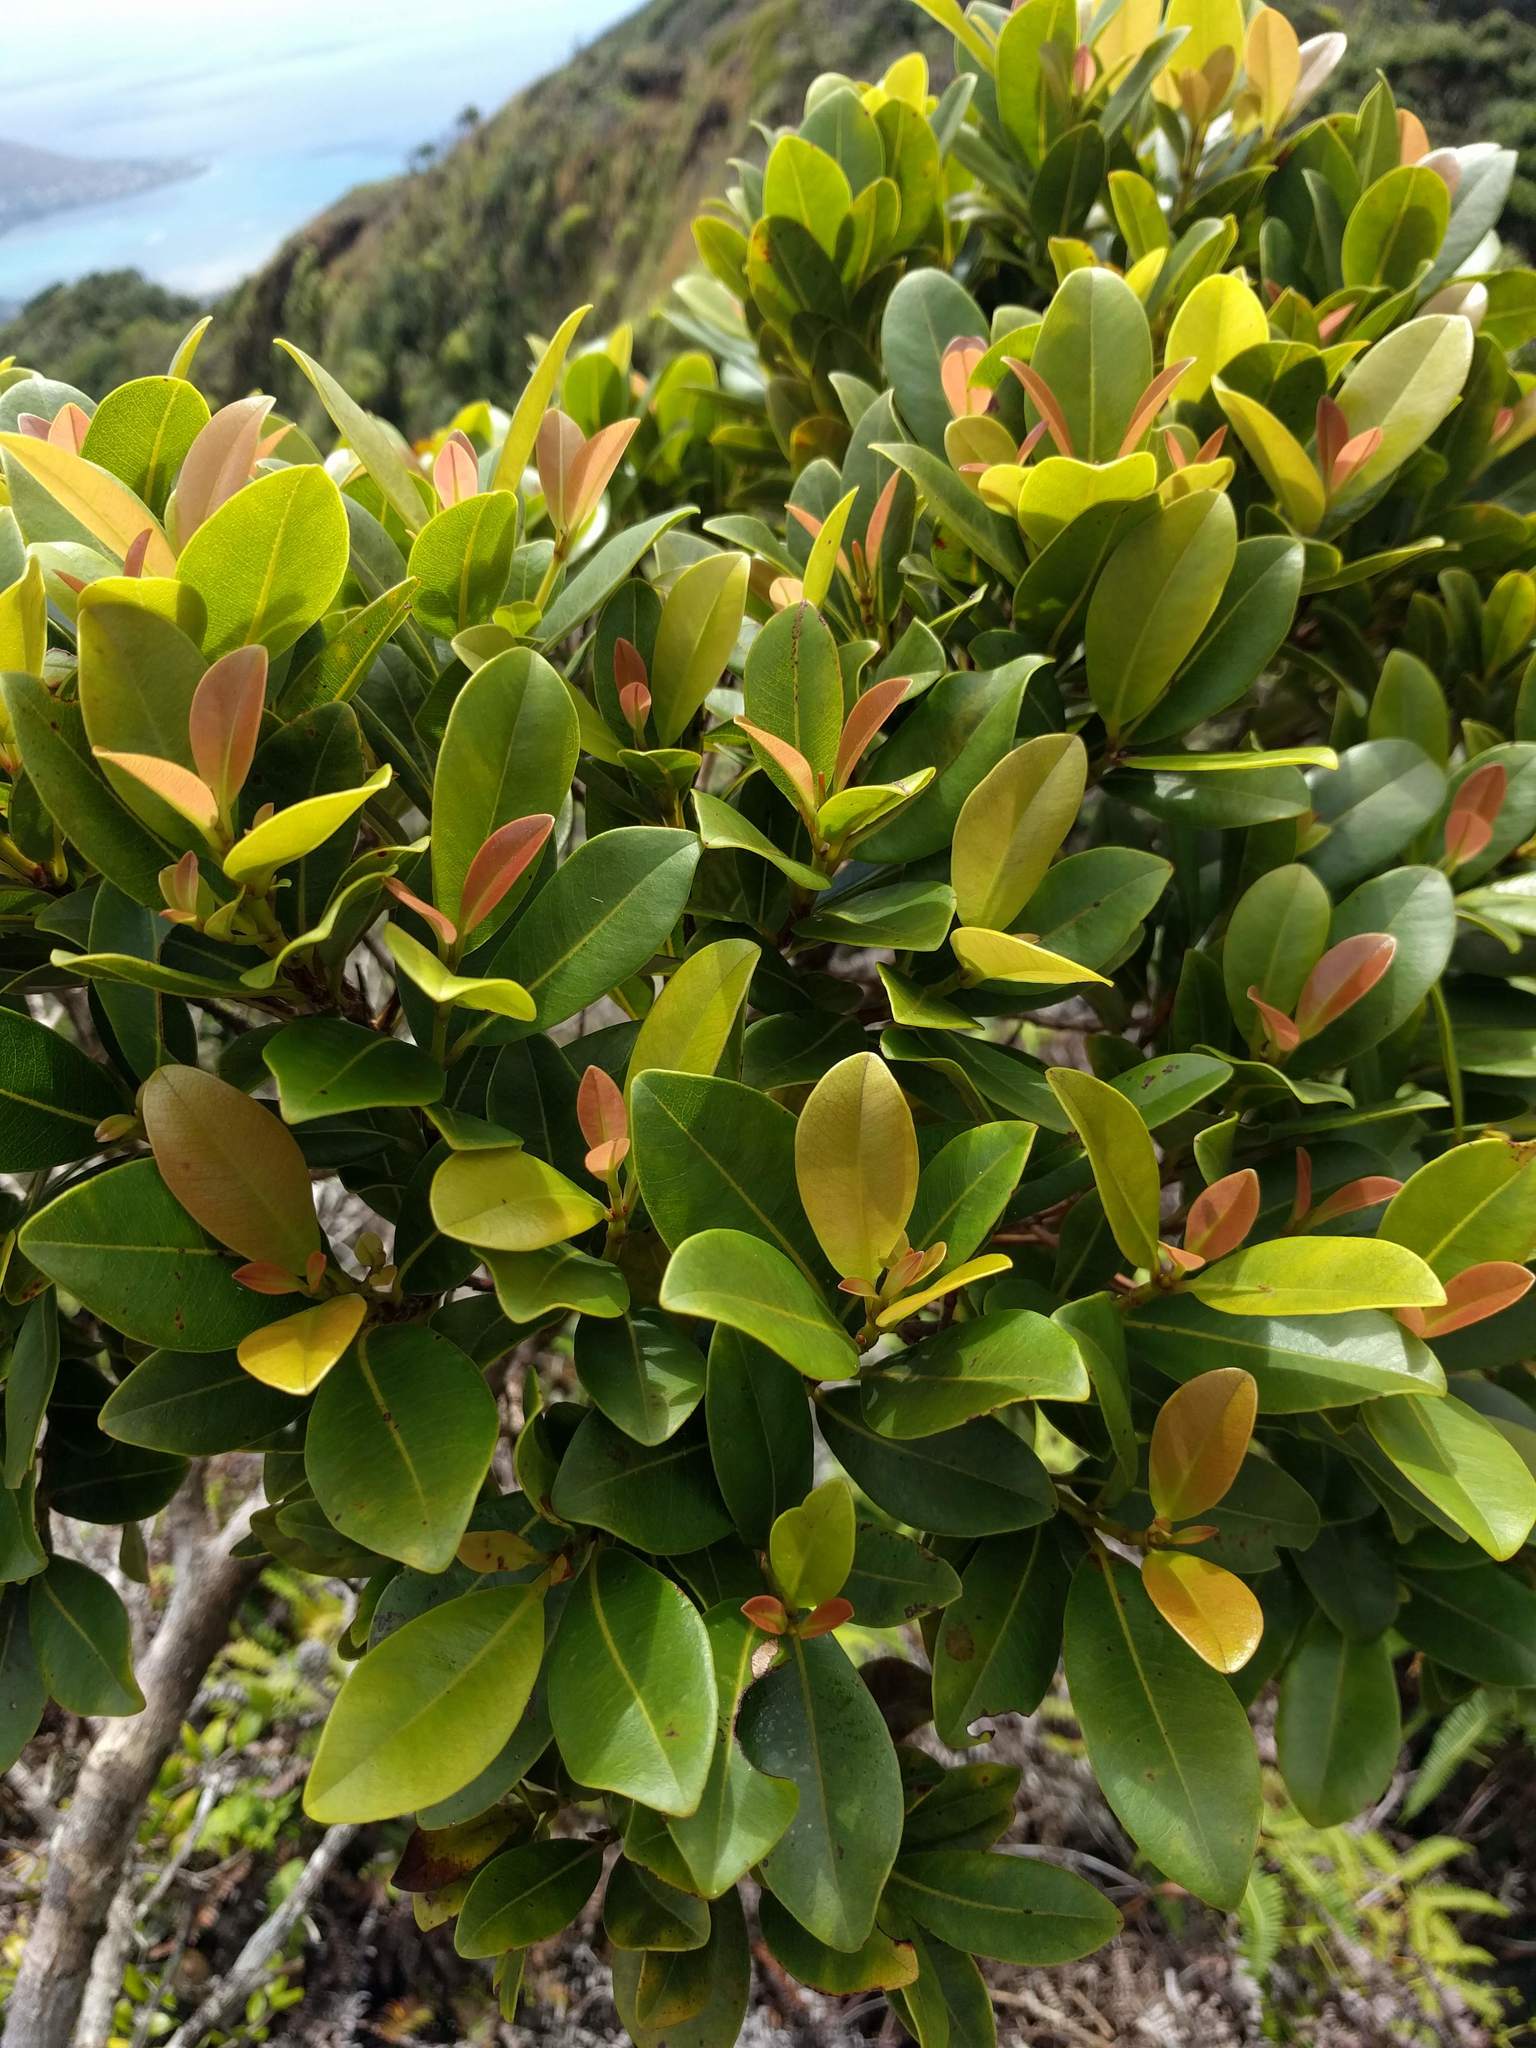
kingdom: Plantae
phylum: Tracheophyta
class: Magnoliopsida
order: Ericales
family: Primulaceae
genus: Myrsine
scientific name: Myrsine lessertiana
